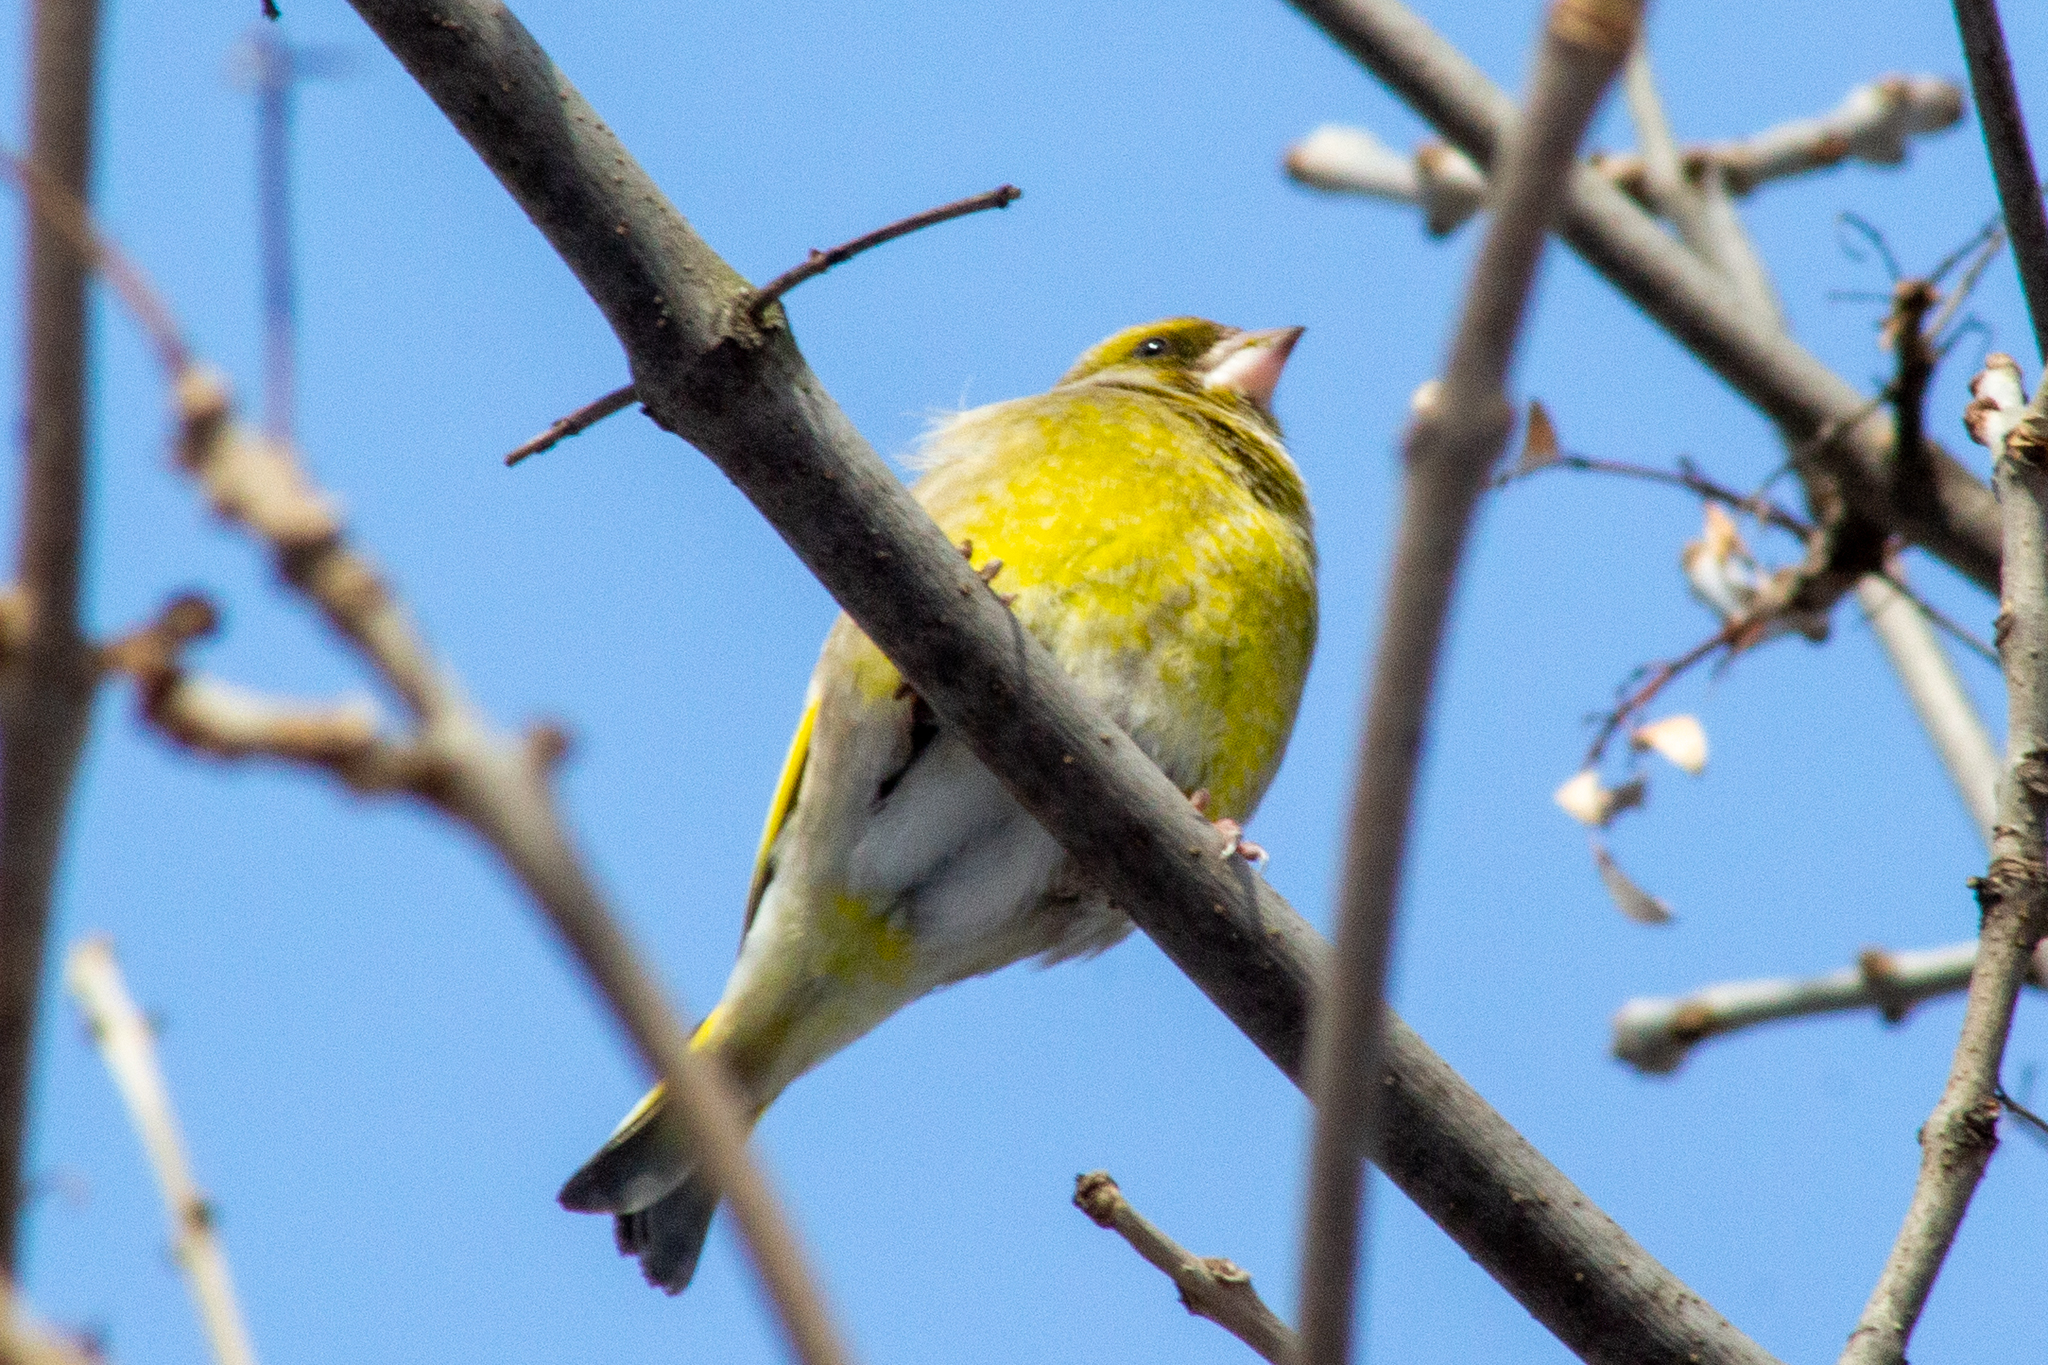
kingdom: Plantae
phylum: Tracheophyta
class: Liliopsida
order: Poales
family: Poaceae
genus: Chloris
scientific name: Chloris chloris
